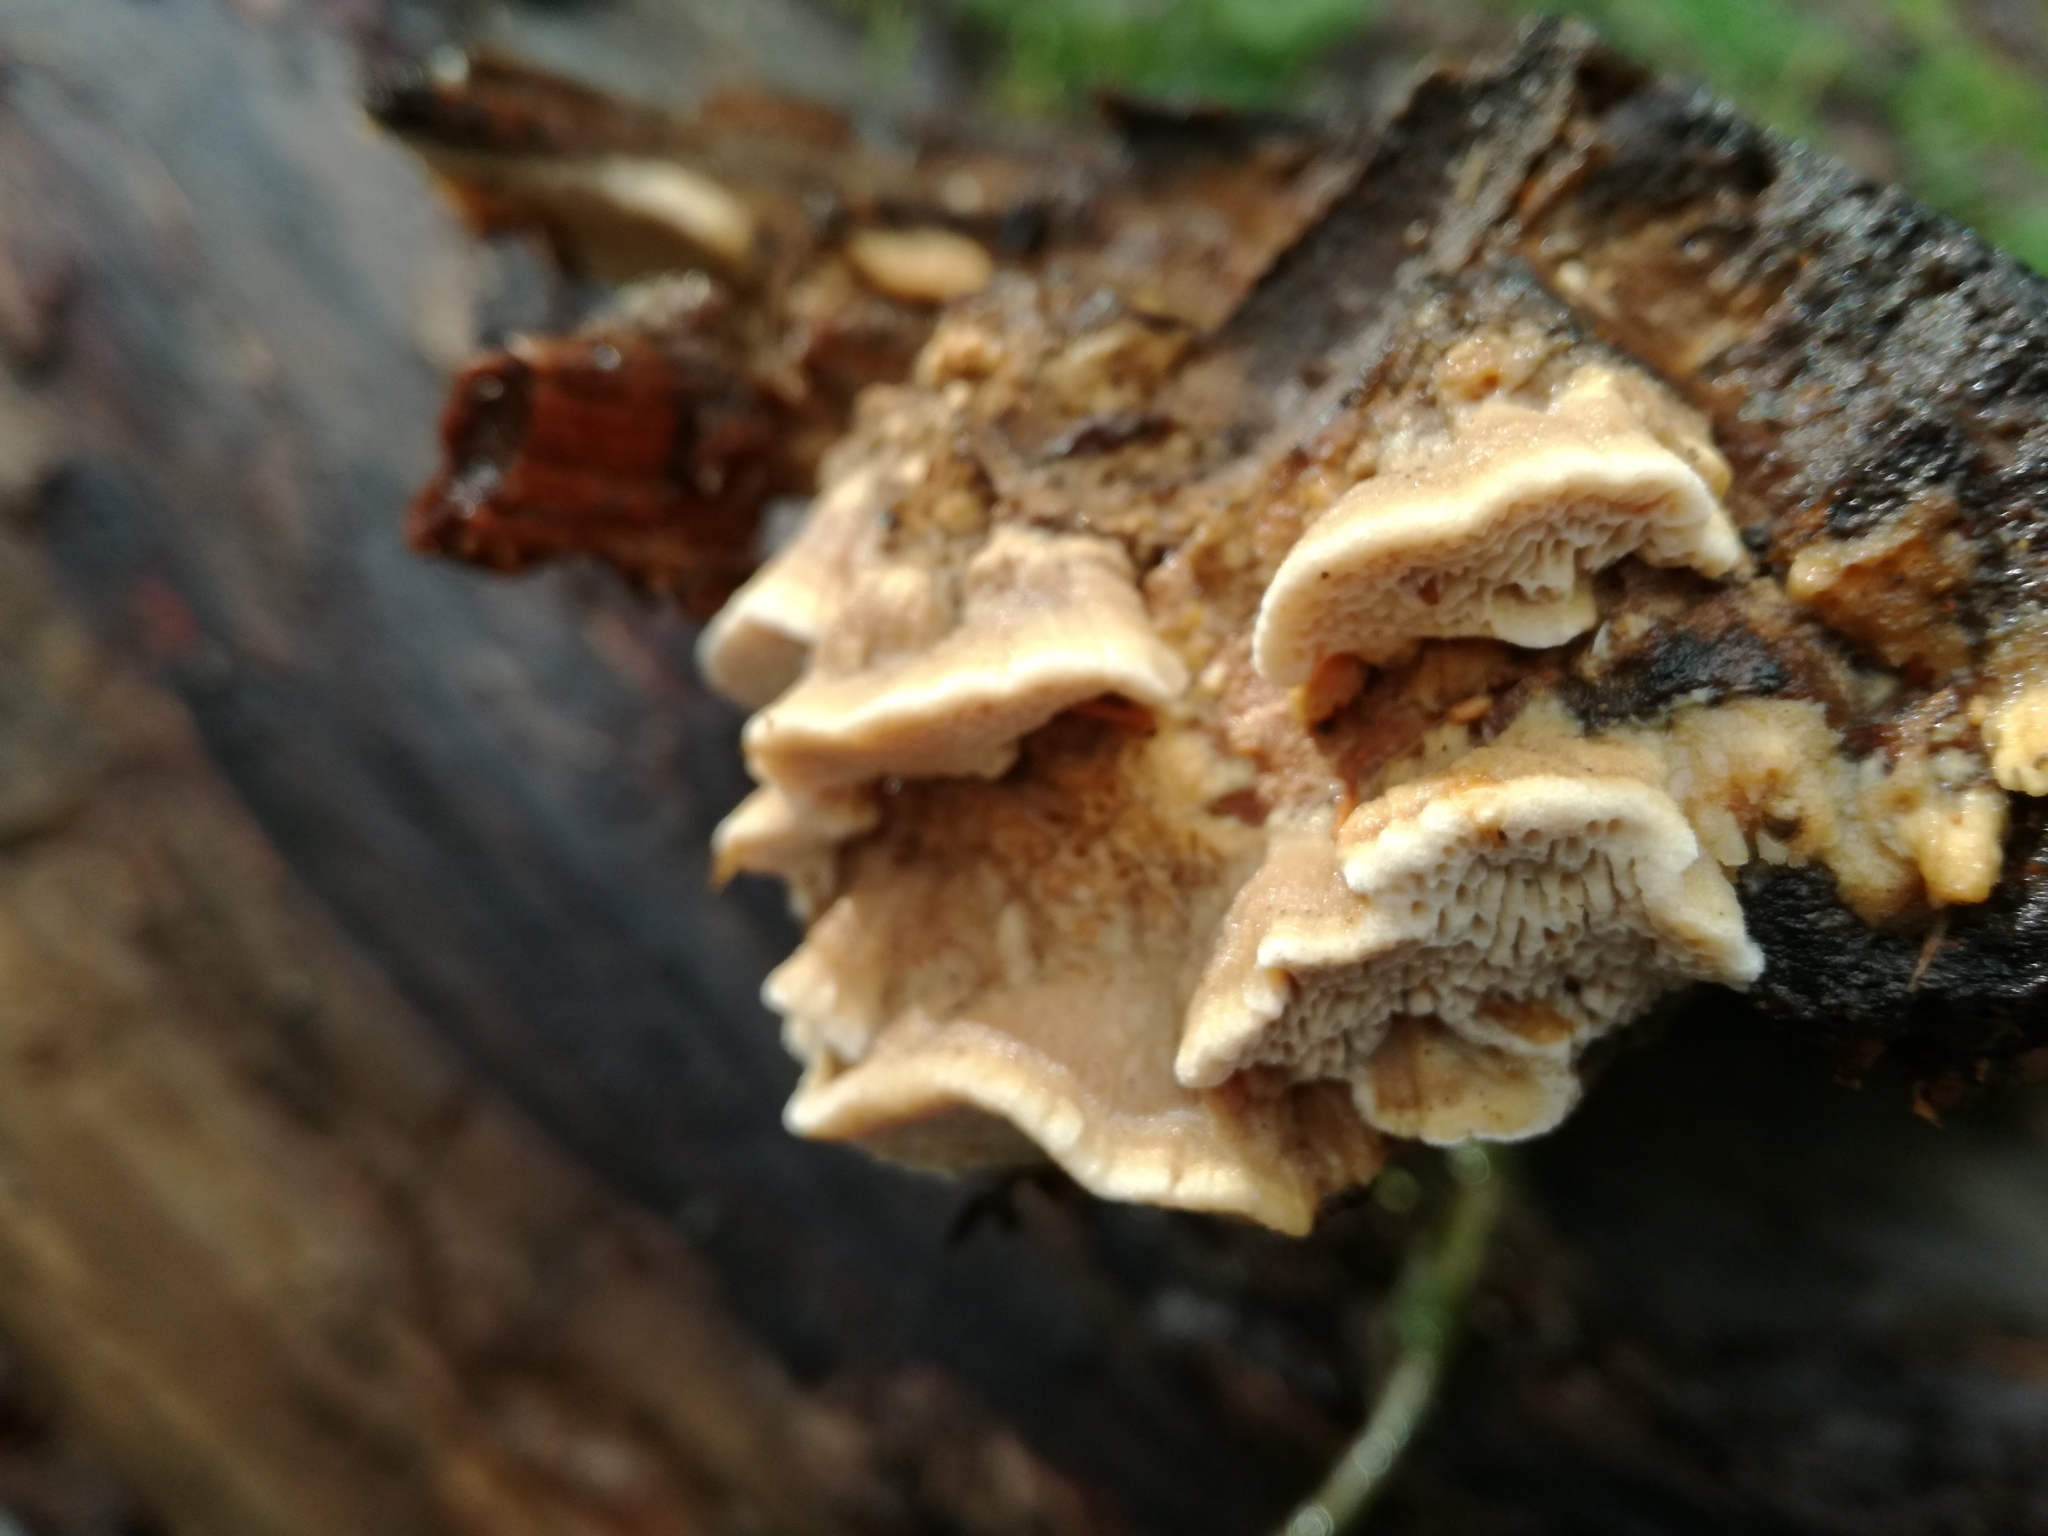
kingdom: Fungi
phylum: Basidiomycota
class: Agaricomycetes
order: Polyporales
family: Irpicaceae
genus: Trametopsis
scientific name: Trametopsis cervina
